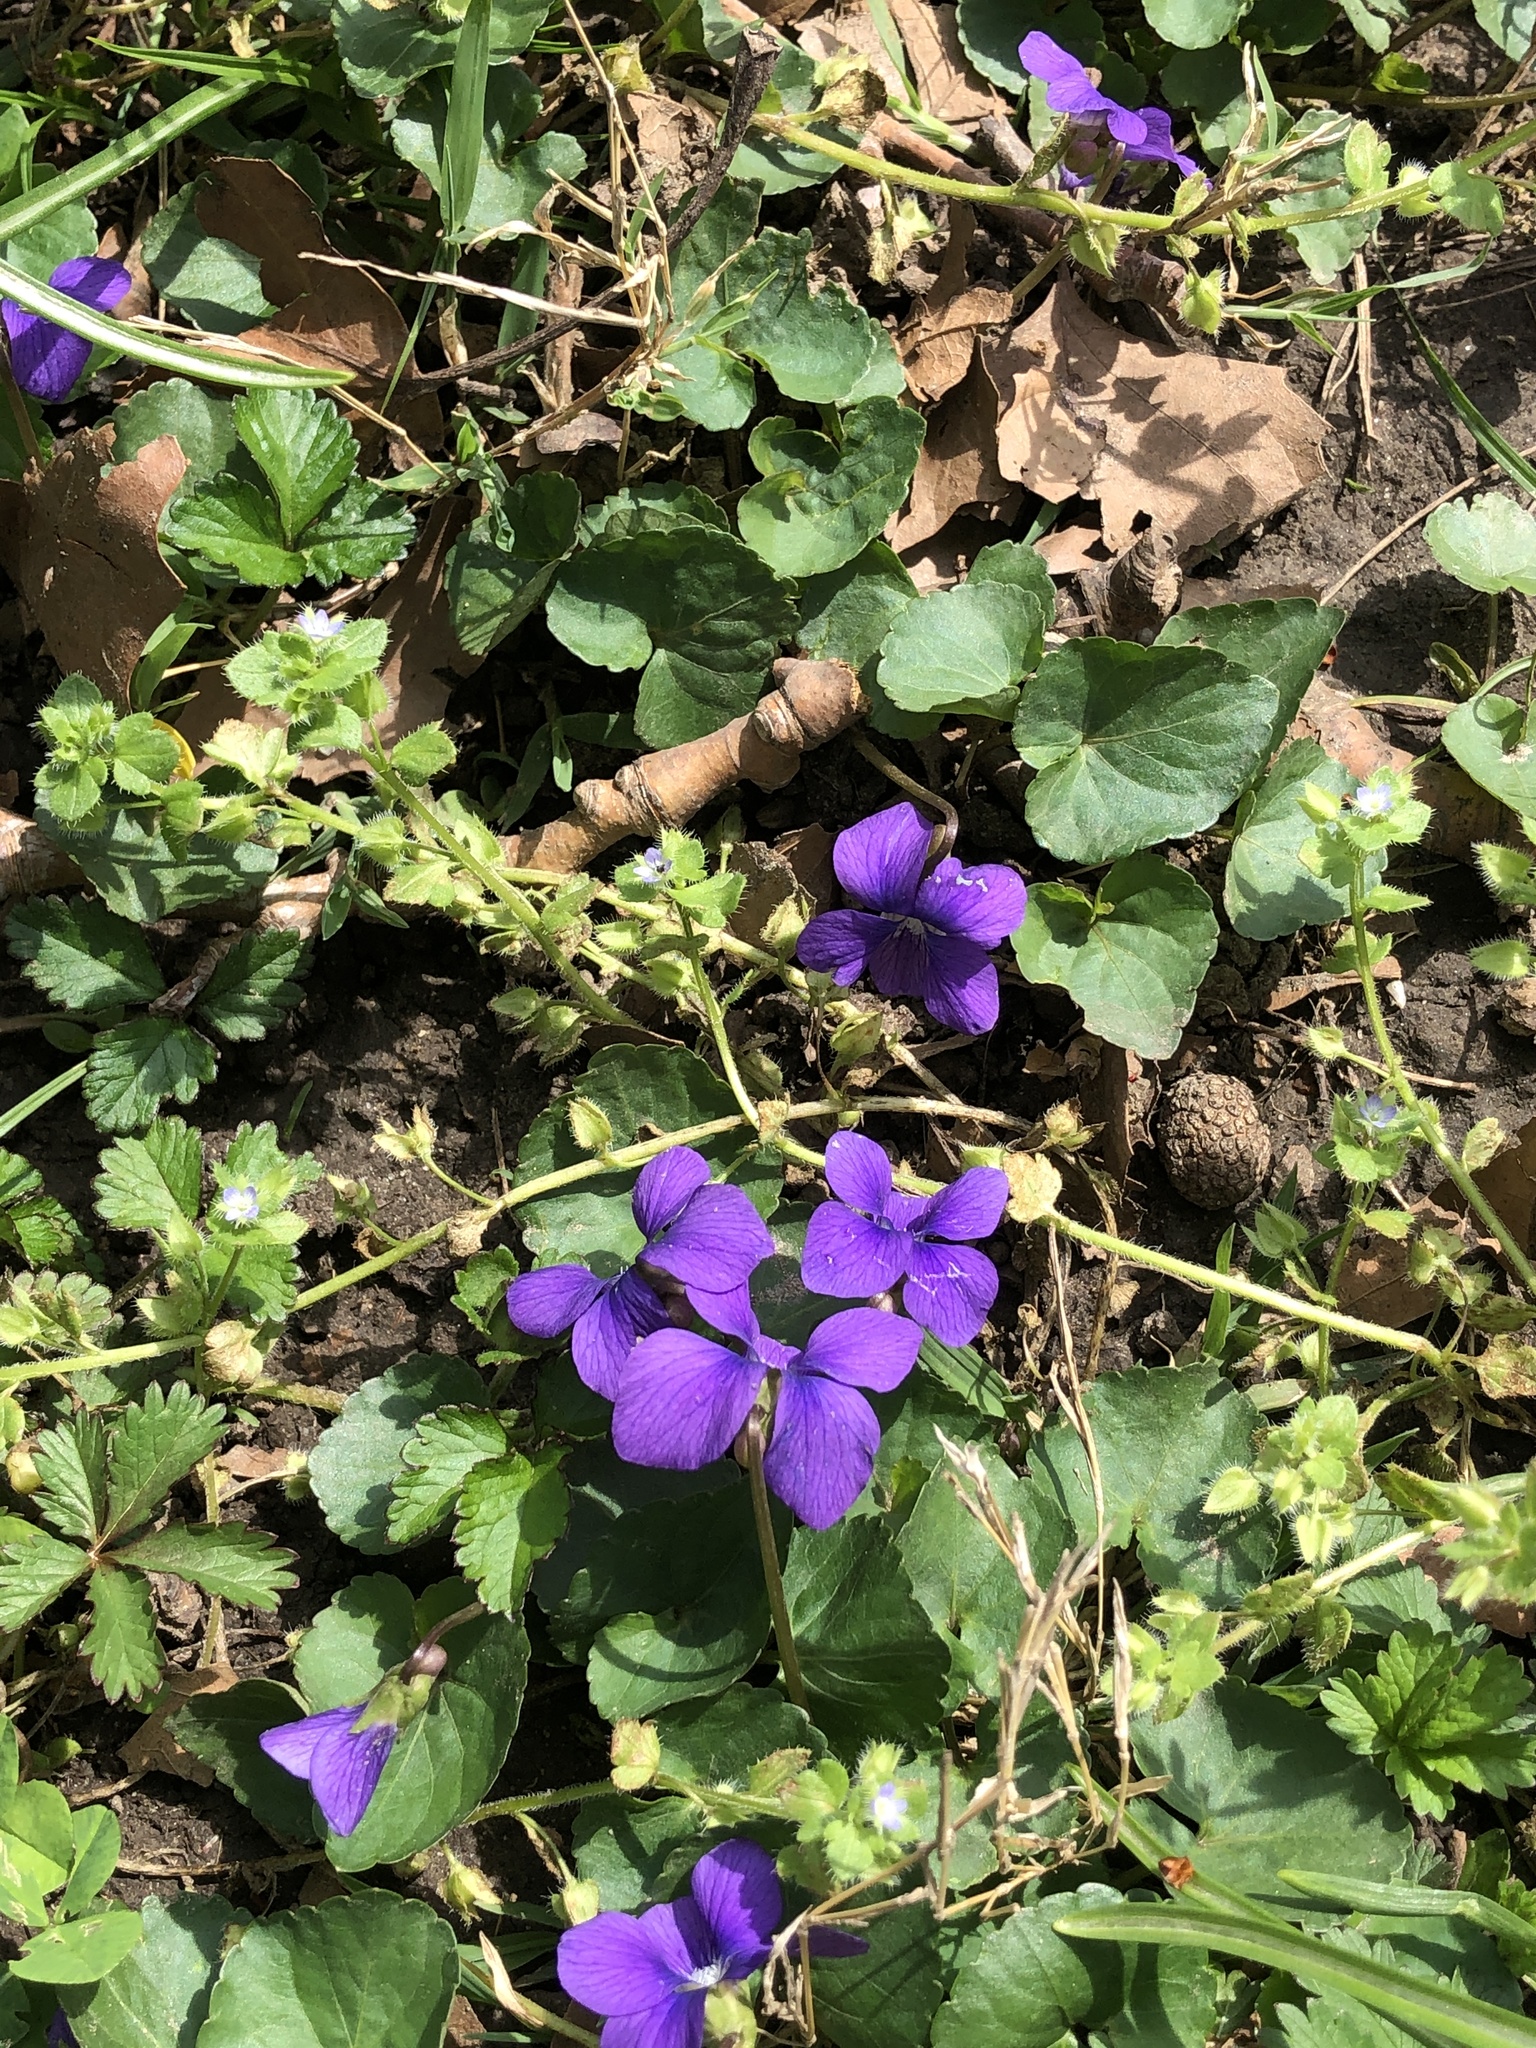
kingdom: Plantae
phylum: Tracheophyta
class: Magnoliopsida
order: Malpighiales
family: Violaceae
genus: Viola
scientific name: Viola sororia
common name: Dooryard violet
